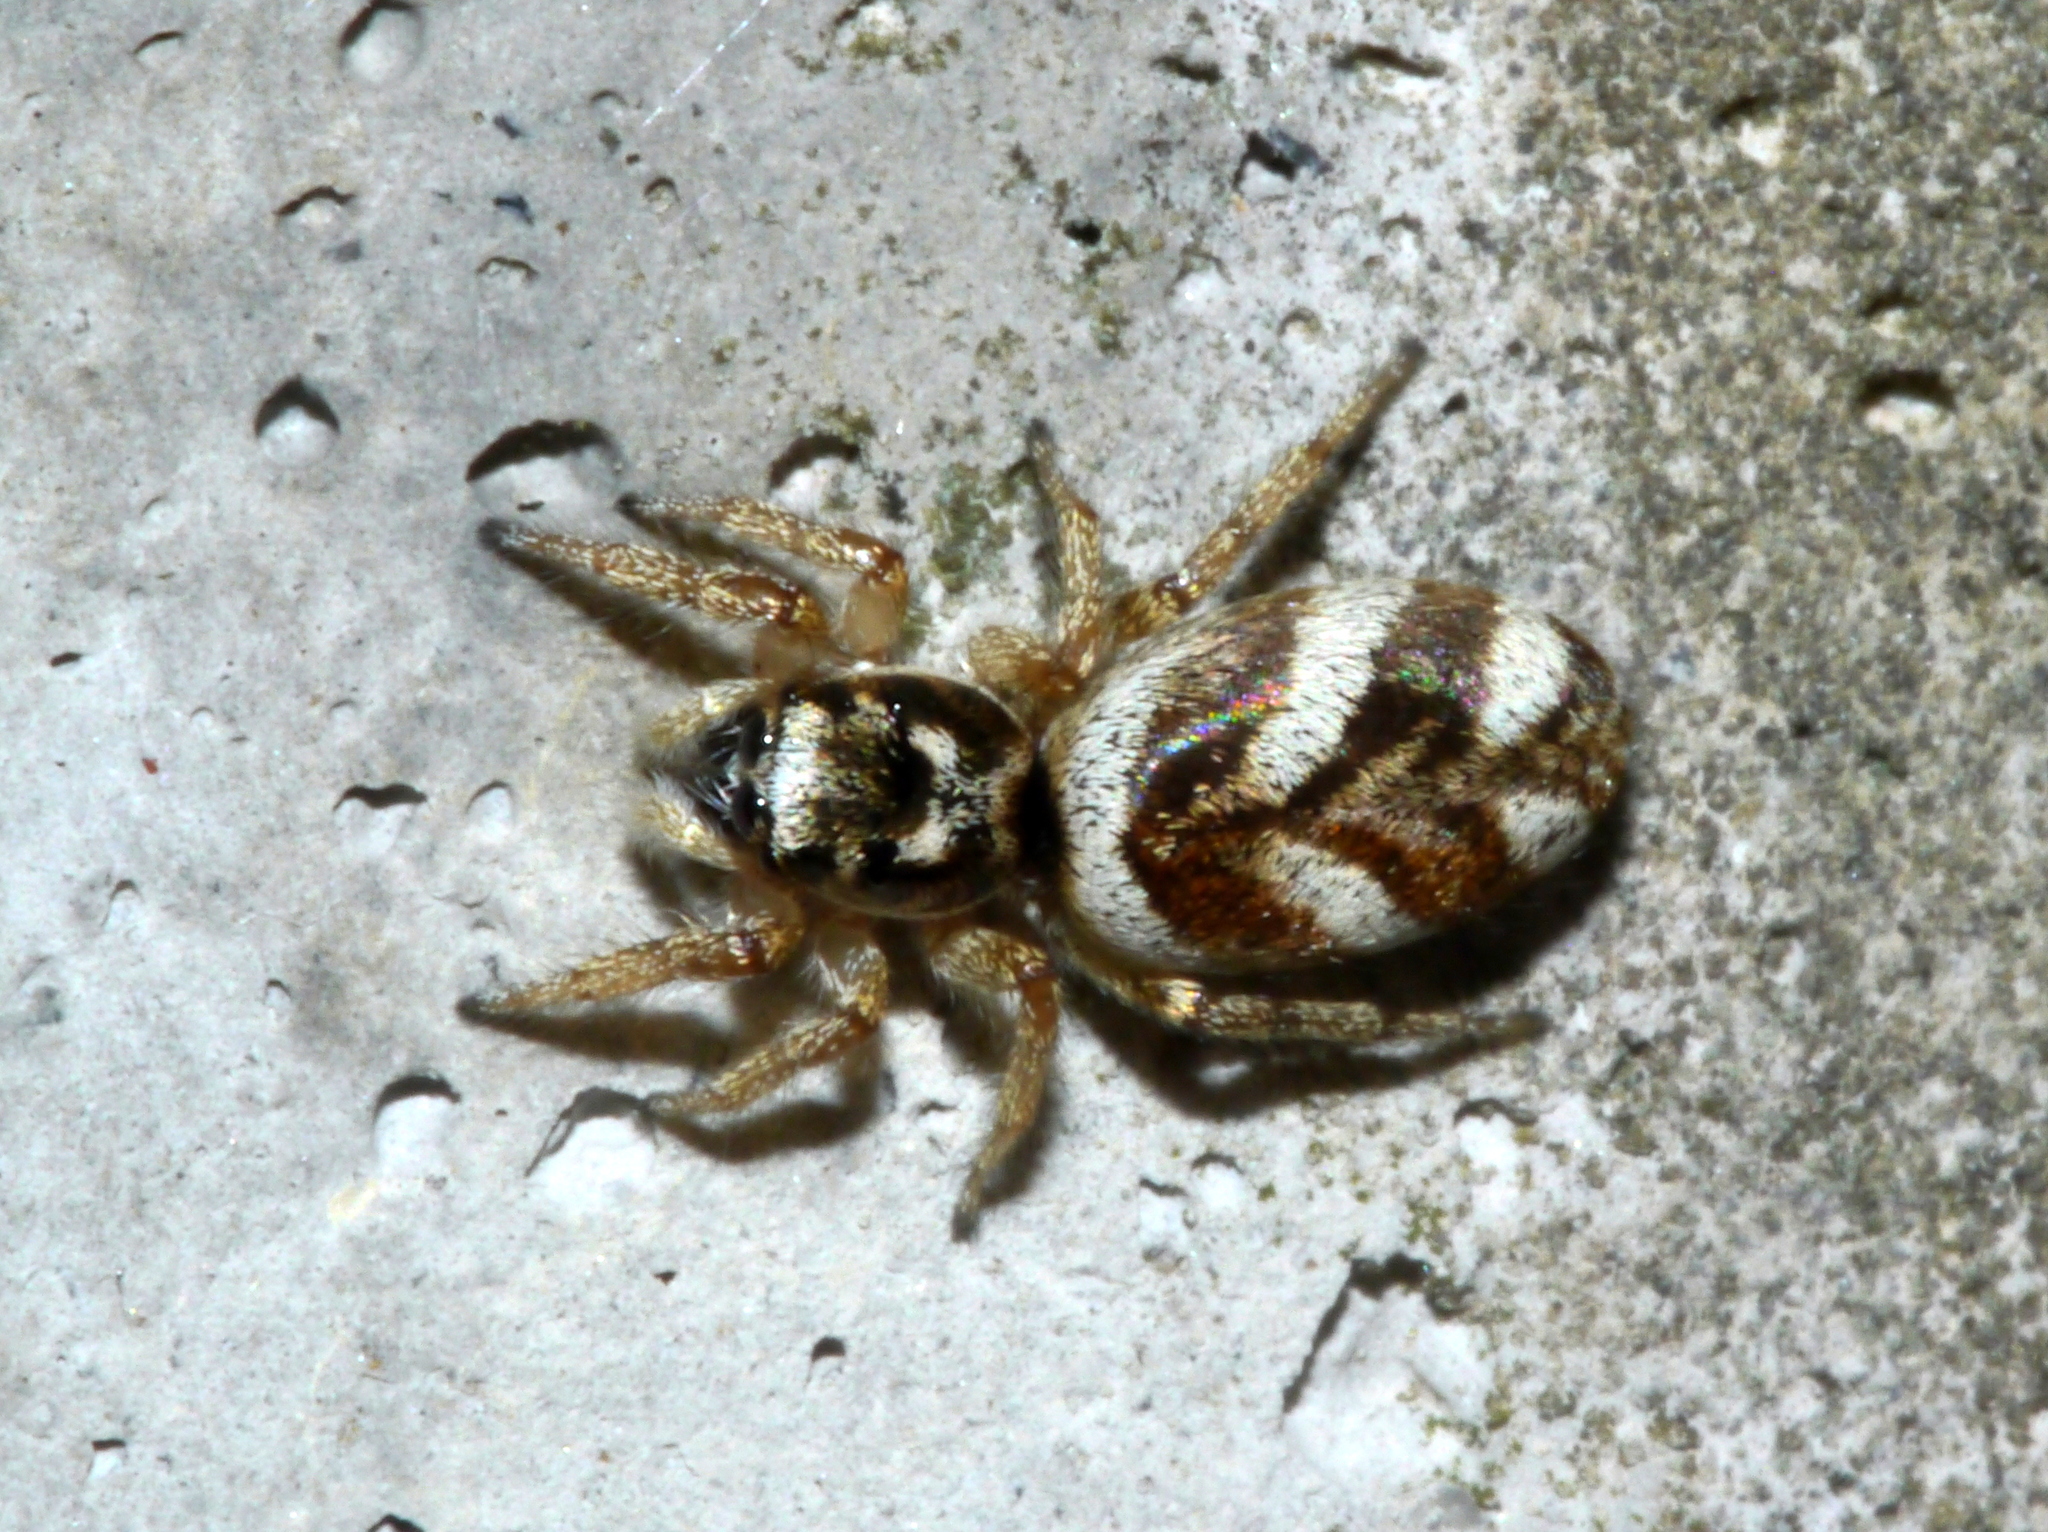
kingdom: Animalia
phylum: Arthropoda
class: Arachnida
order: Araneae
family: Salticidae
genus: Salticus
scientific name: Salticus scenicus
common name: Zebra jumper
